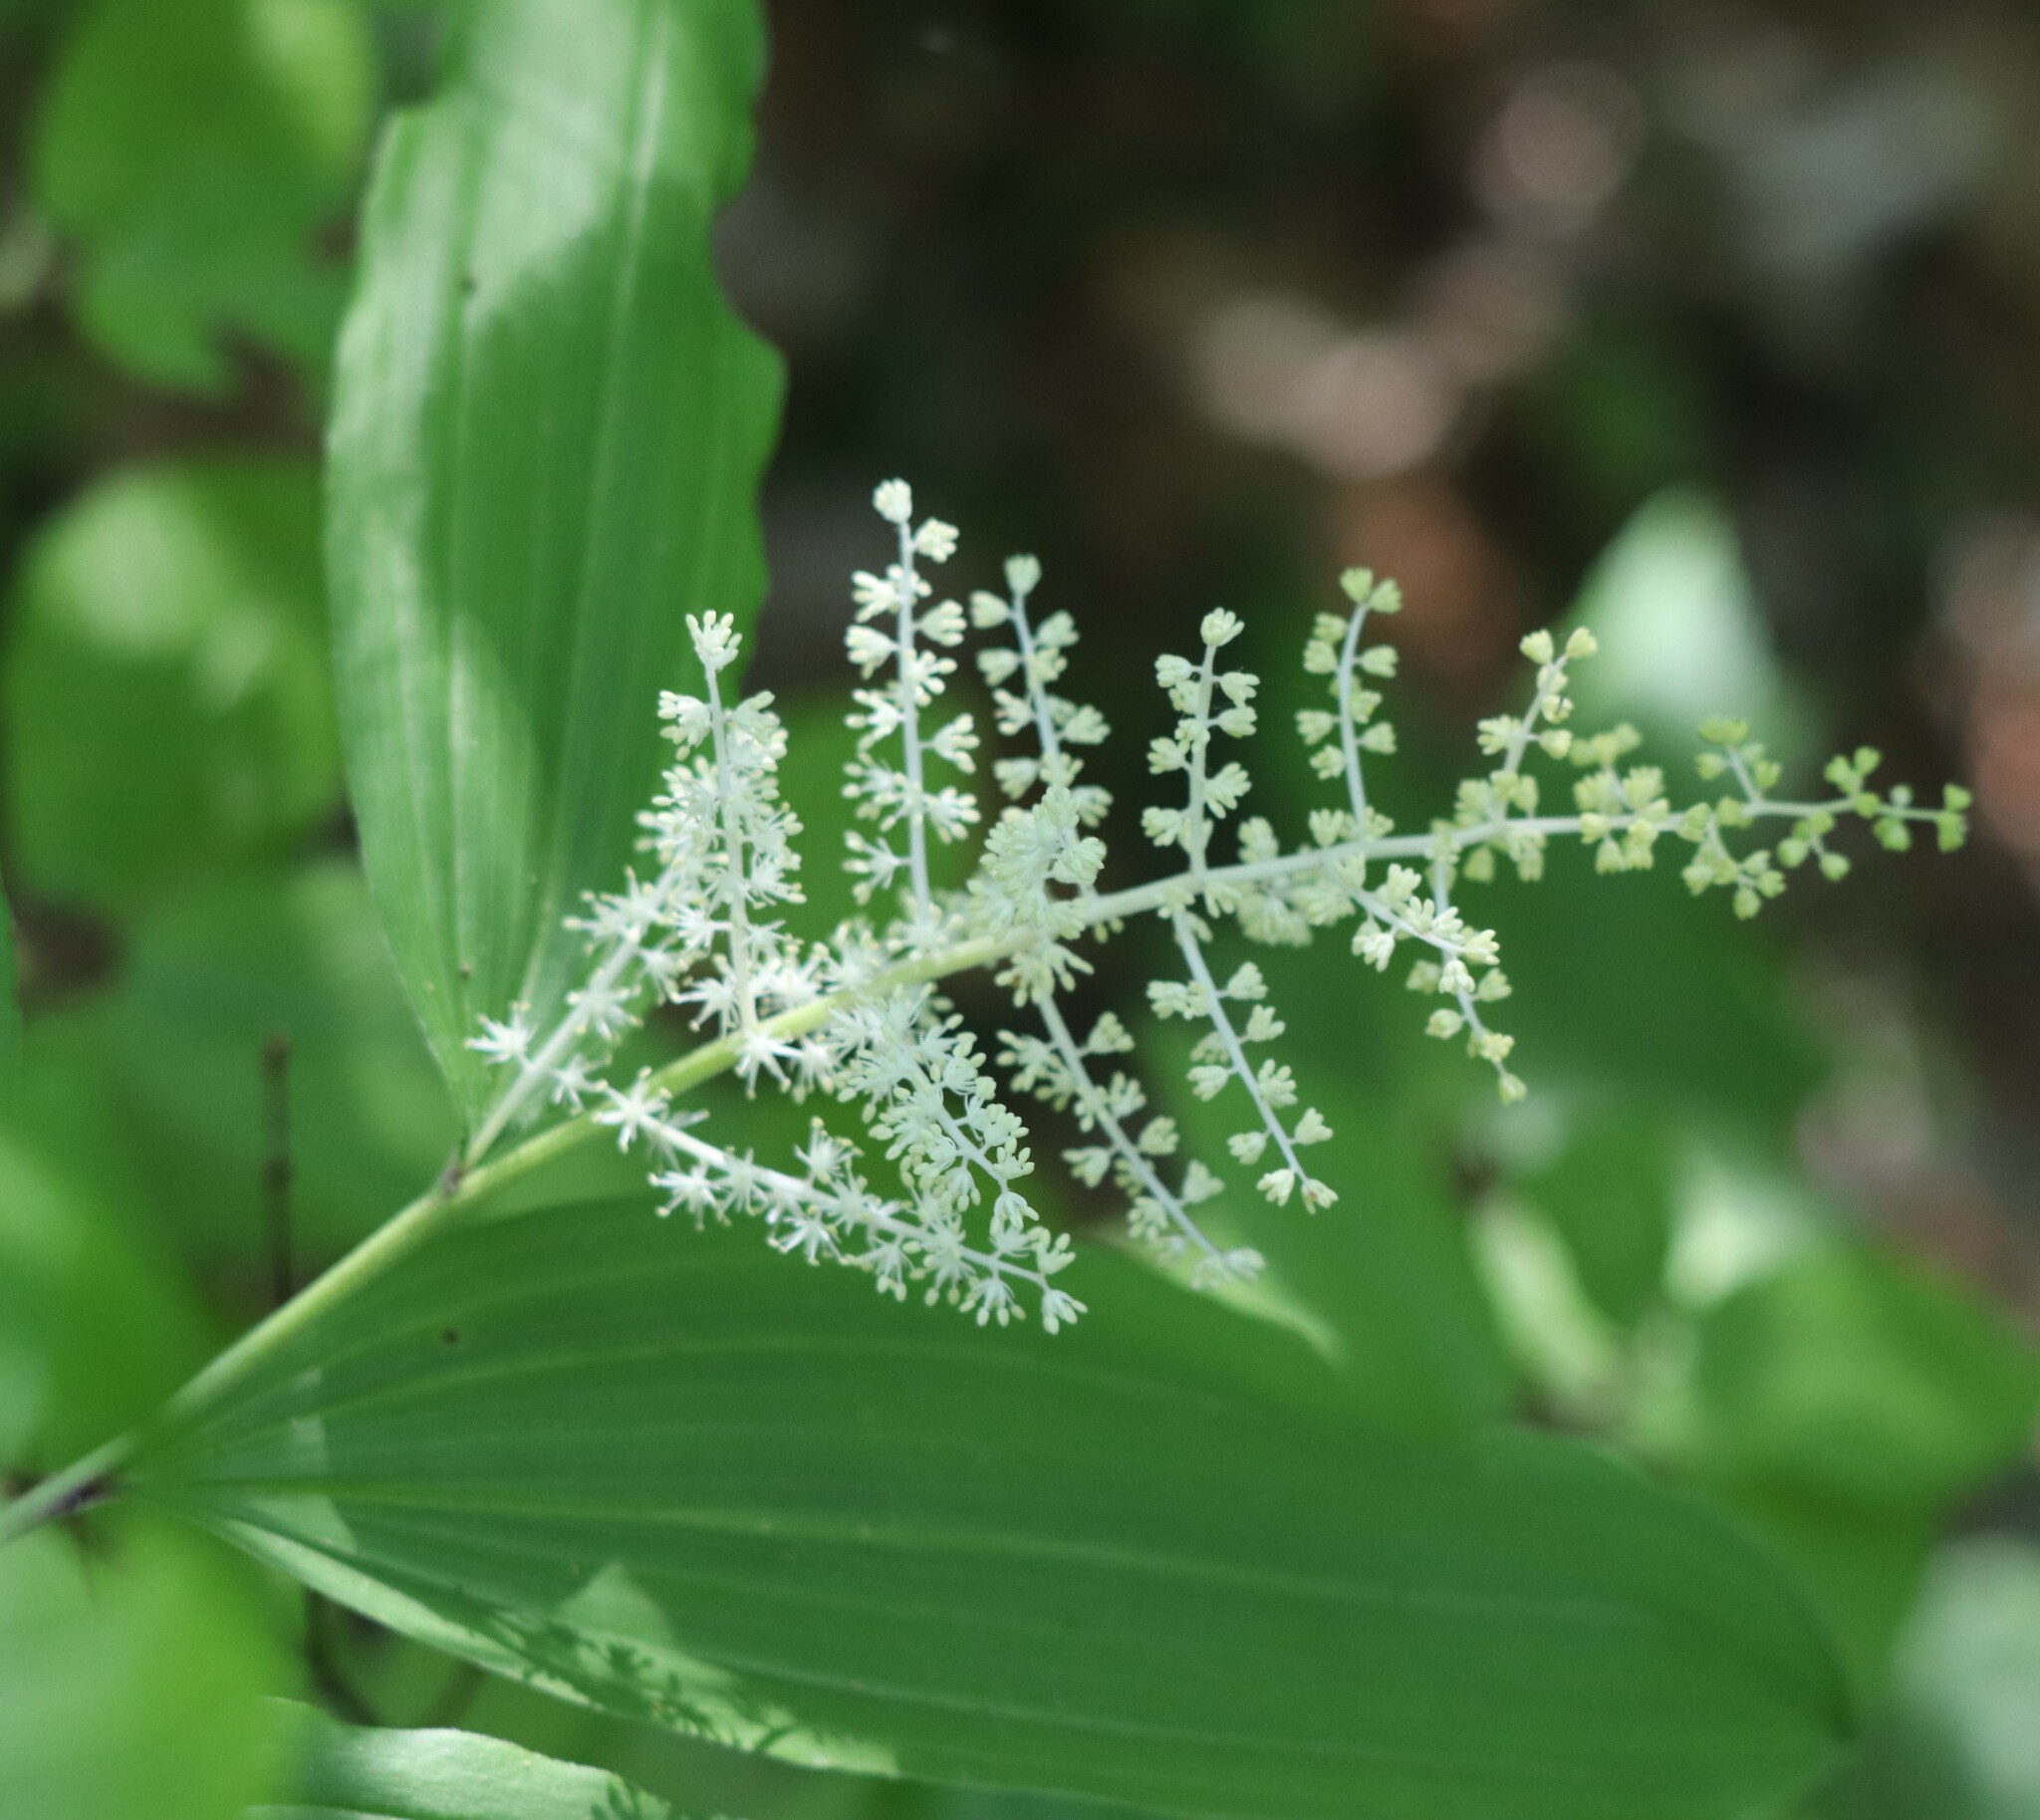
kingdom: Plantae
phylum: Tracheophyta
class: Liliopsida
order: Asparagales
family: Asparagaceae
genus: Maianthemum
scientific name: Maianthemum racemosum
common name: False spikenard
